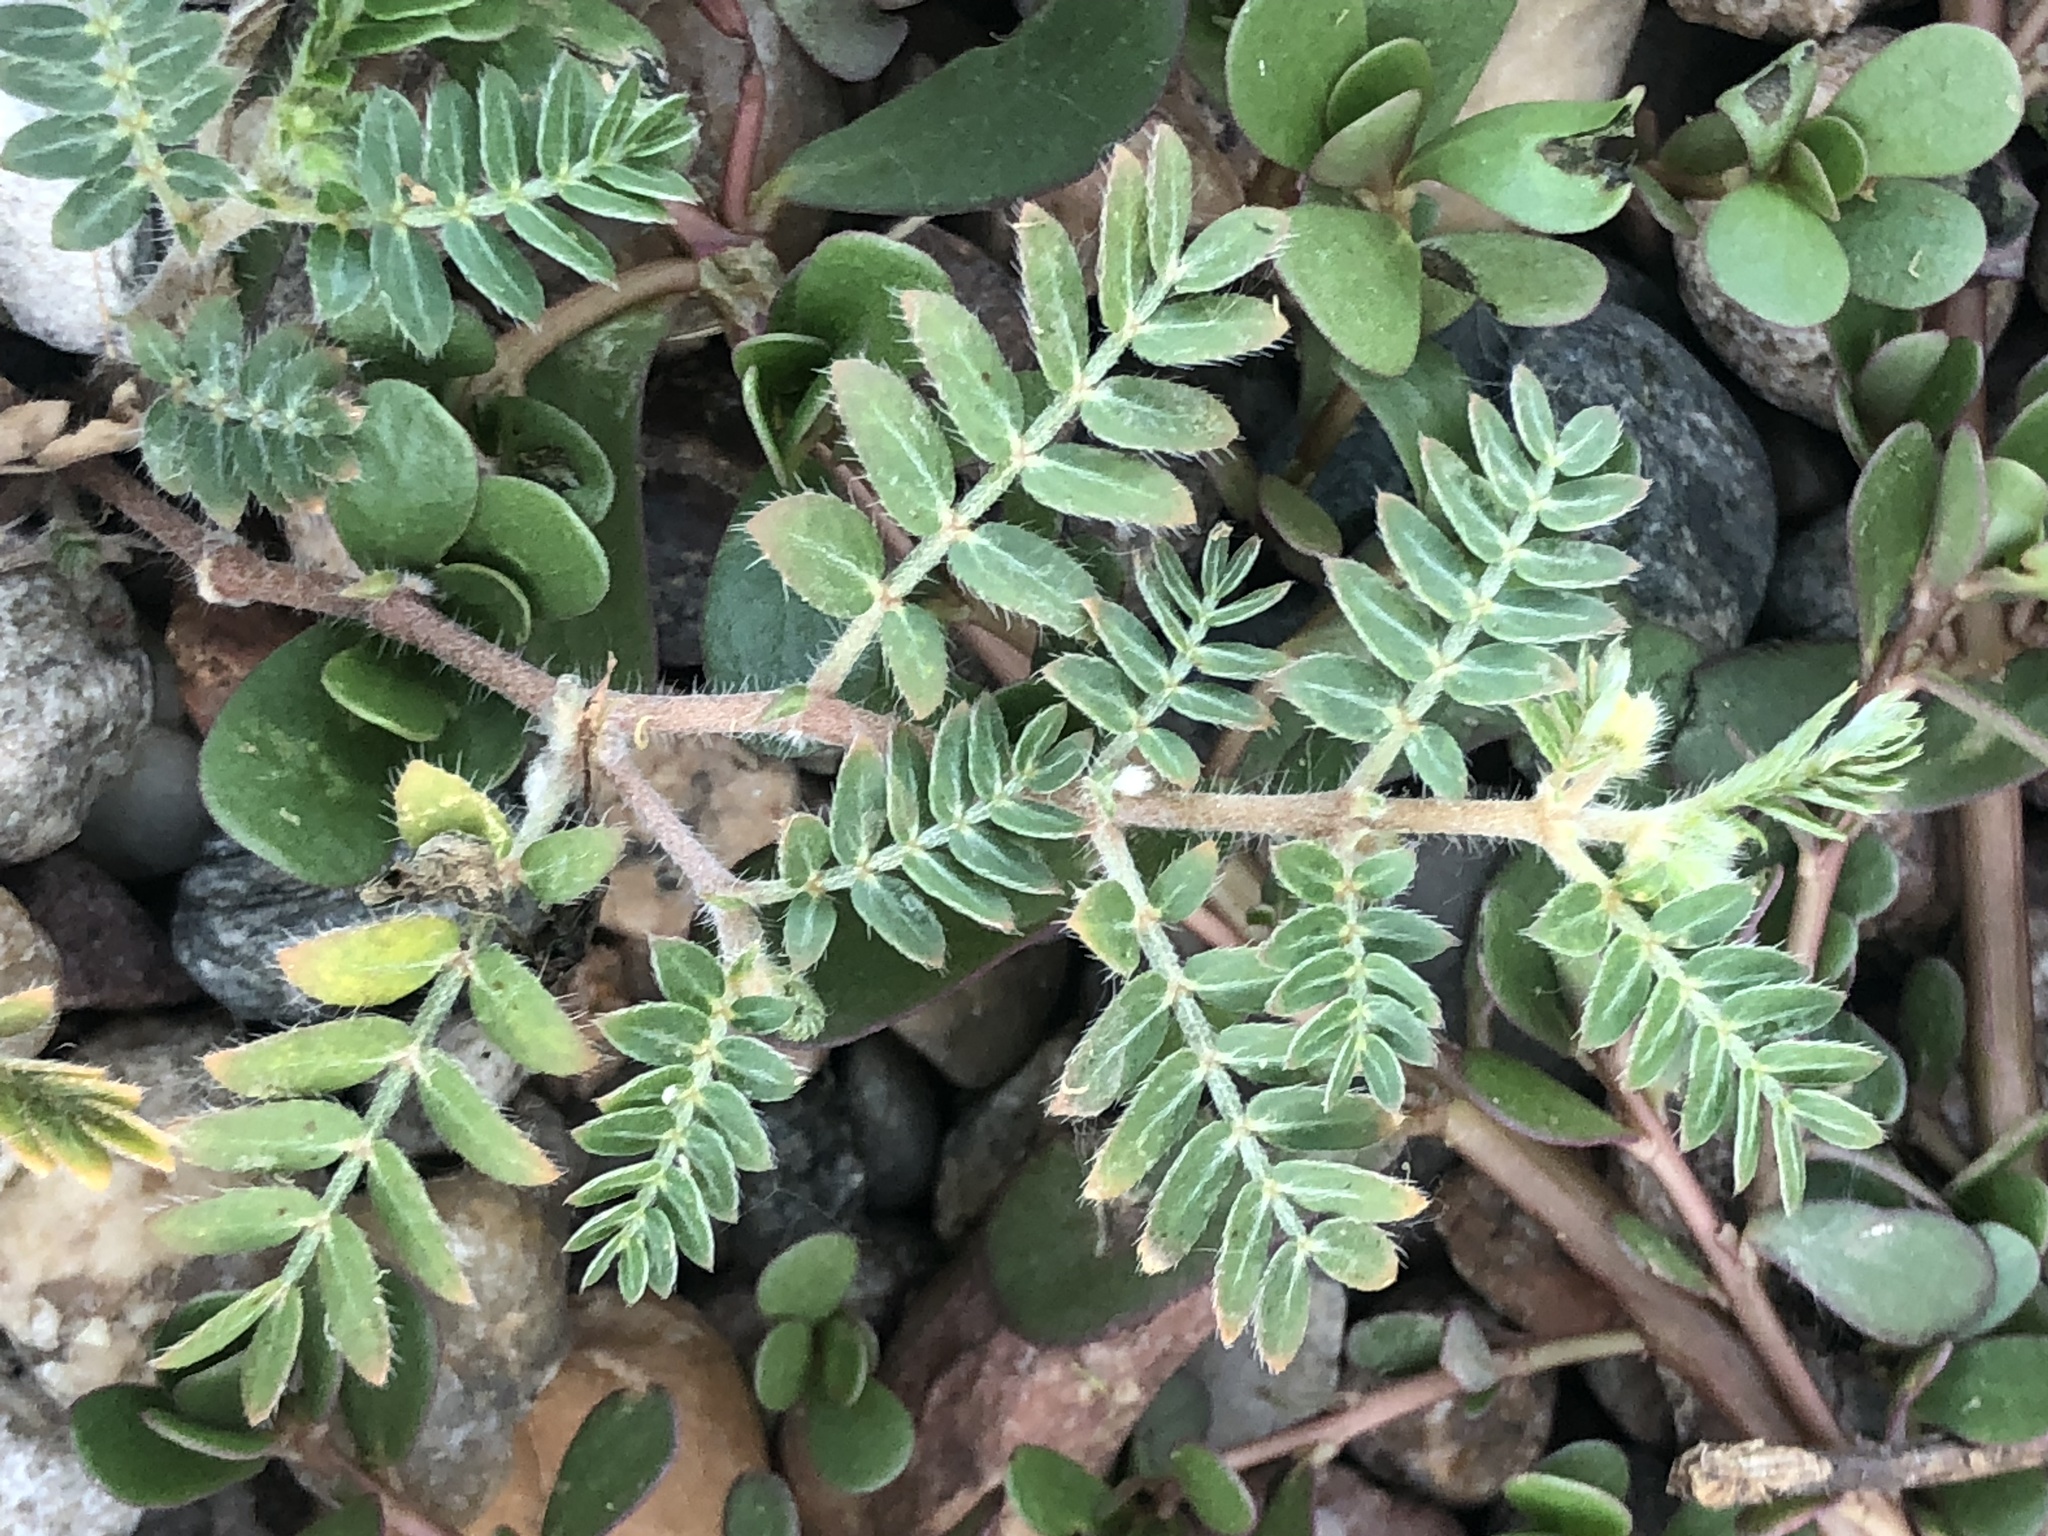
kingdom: Plantae
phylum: Tracheophyta
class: Magnoliopsida
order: Zygophyllales
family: Zygophyllaceae
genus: Tribulus
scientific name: Tribulus terrestris
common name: Puncturevine
